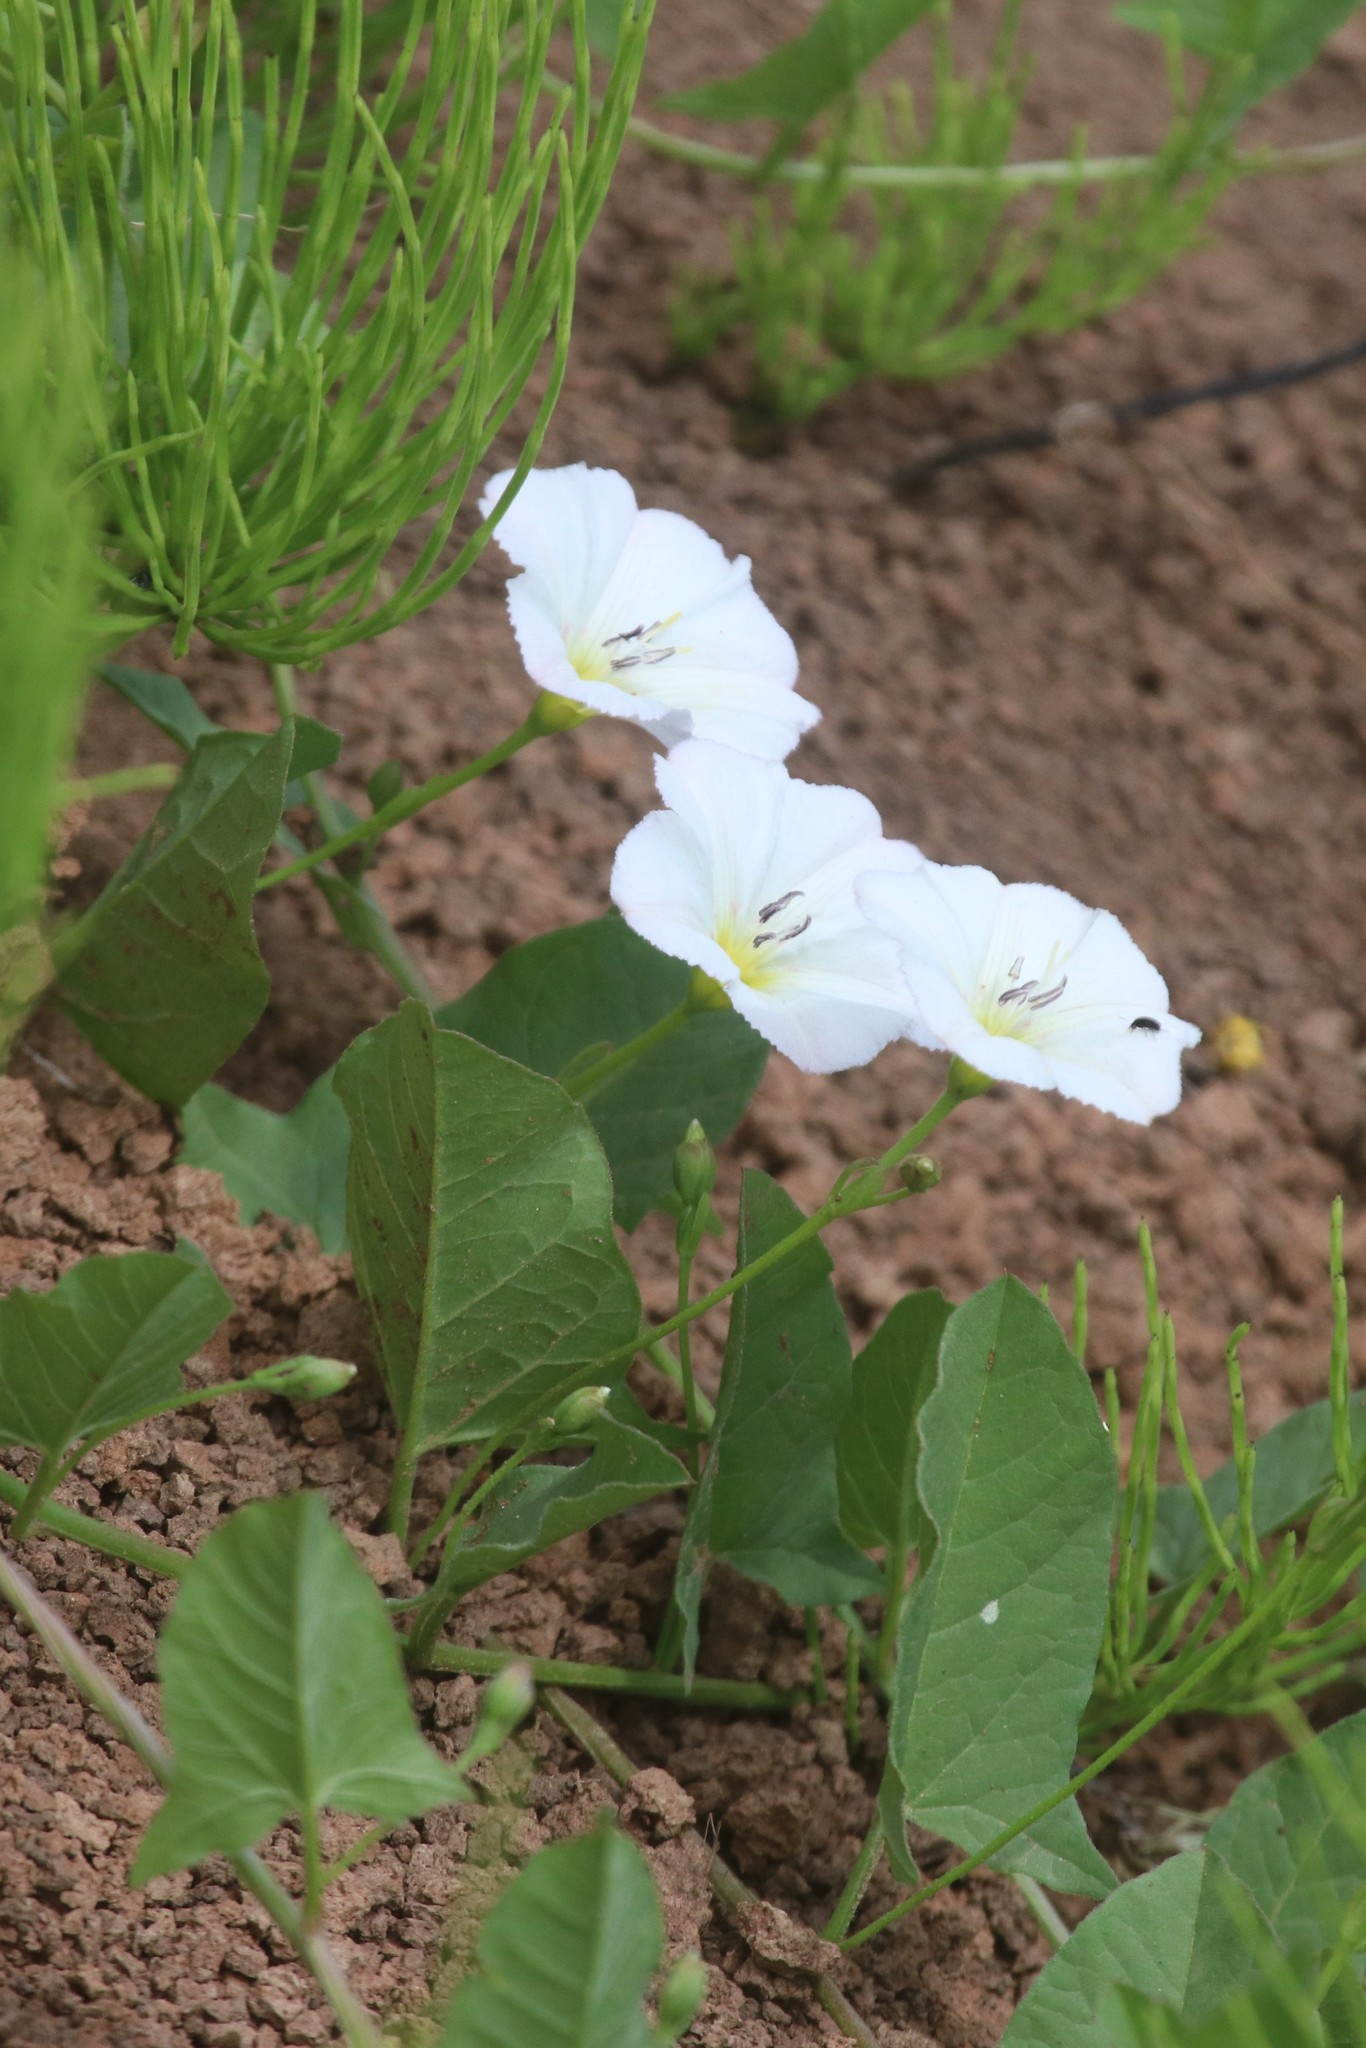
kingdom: Plantae
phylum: Tracheophyta
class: Magnoliopsida
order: Solanales
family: Convolvulaceae
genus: Convolvulus
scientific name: Convolvulus arvensis
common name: Field bindweed
